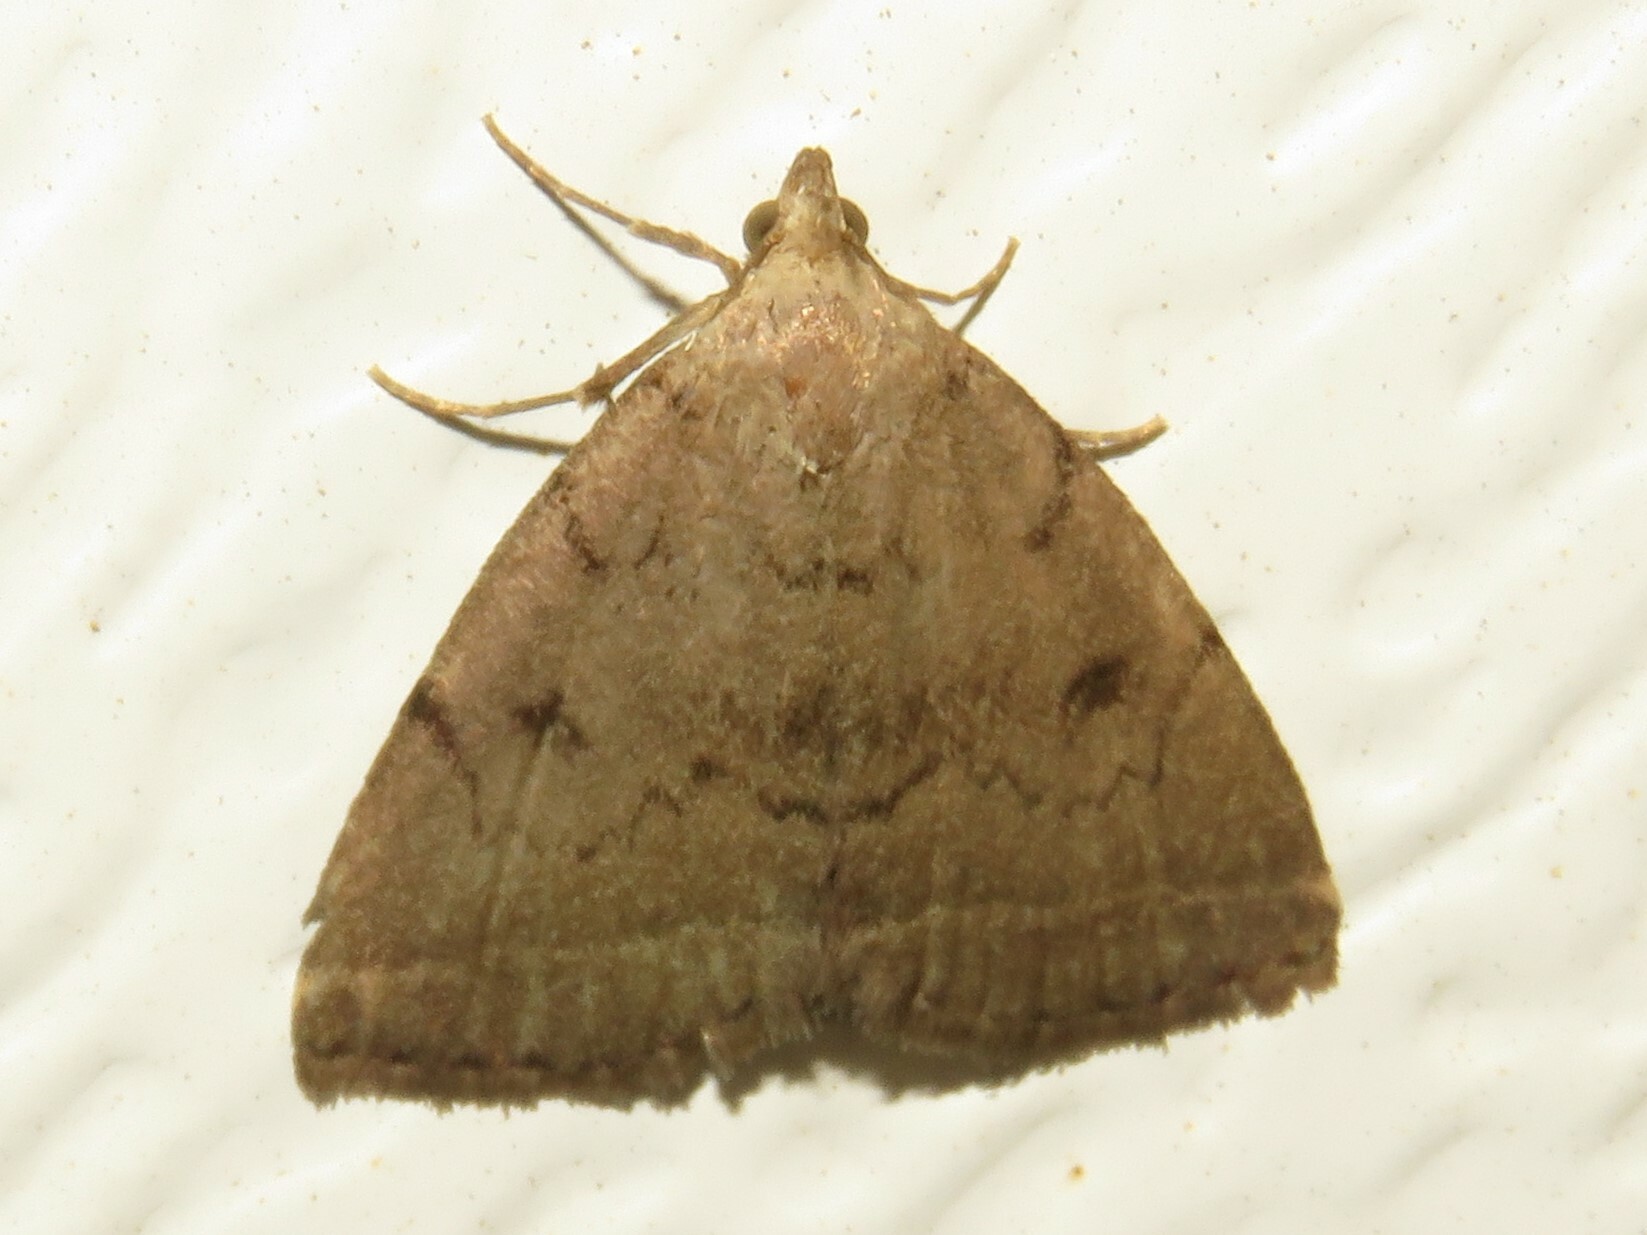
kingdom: Animalia
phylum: Arthropoda
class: Insecta
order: Lepidoptera
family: Erebidae
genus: Zanclognatha
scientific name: Zanclognatha dentata
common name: Toothed fan-foot
